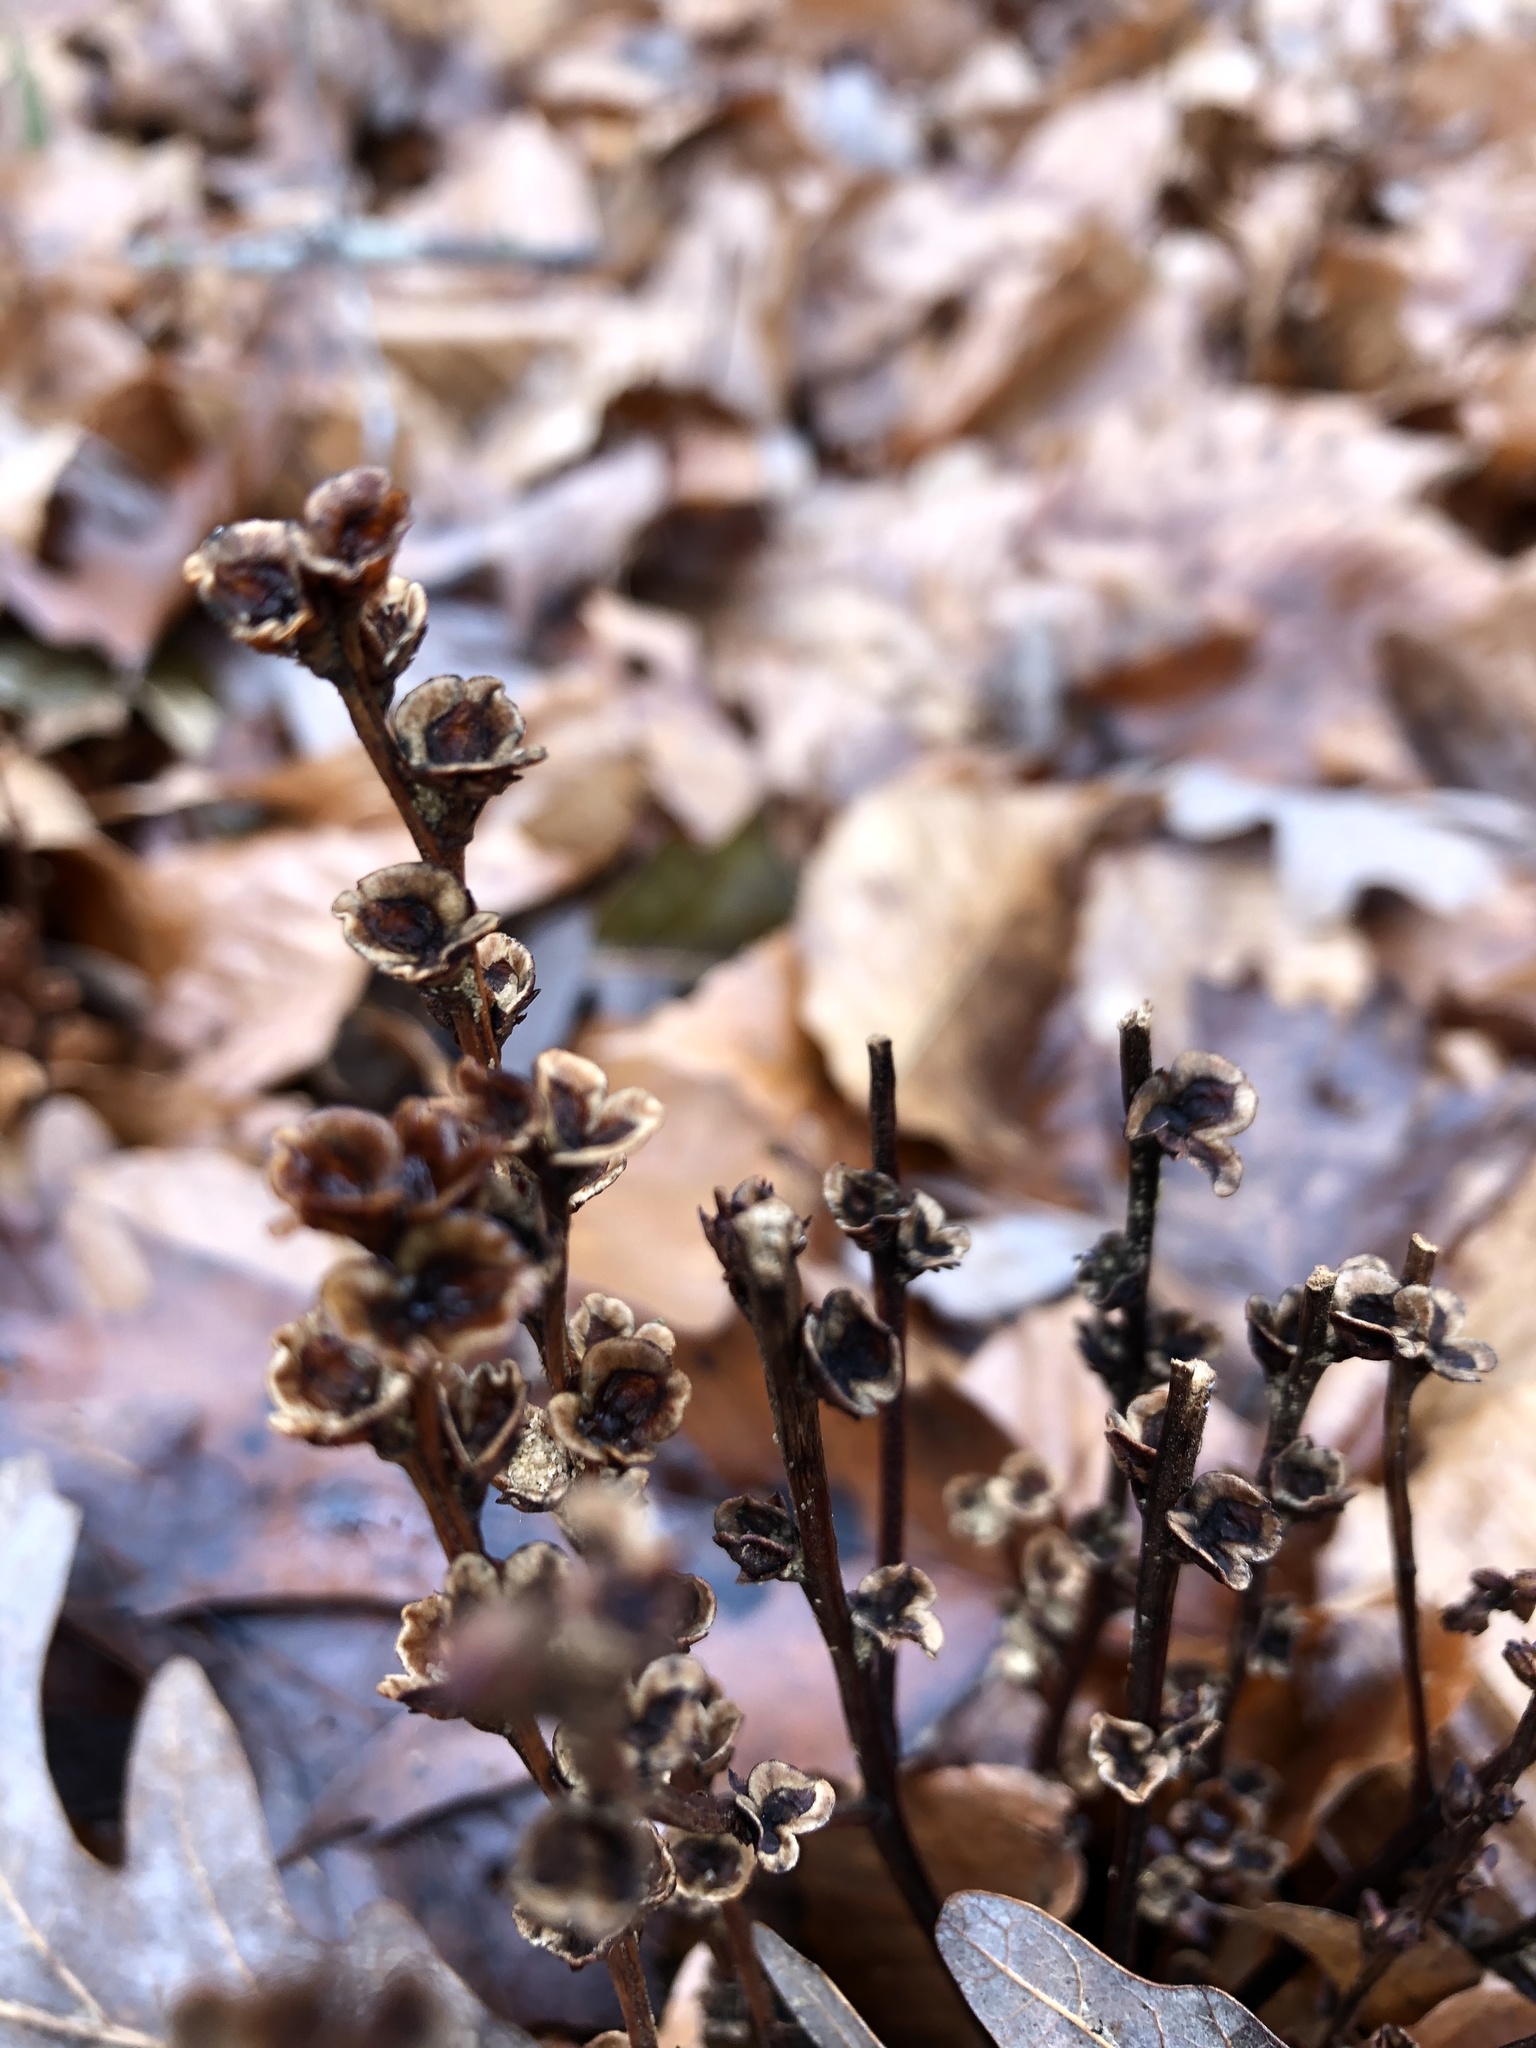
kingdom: Plantae
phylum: Tracheophyta
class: Magnoliopsida
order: Lamiales
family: Orobanchaceae
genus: Epifagus
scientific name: Epifagus virginiana
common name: Beechdrops
